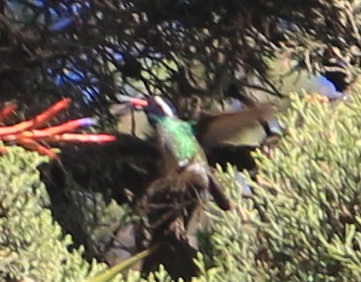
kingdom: Animalia
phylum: Chordata
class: Aves
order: Apodiformes
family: Trochilidae
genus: Basilinna
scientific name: Basilinna leucotis
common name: White-eared hummingbird
